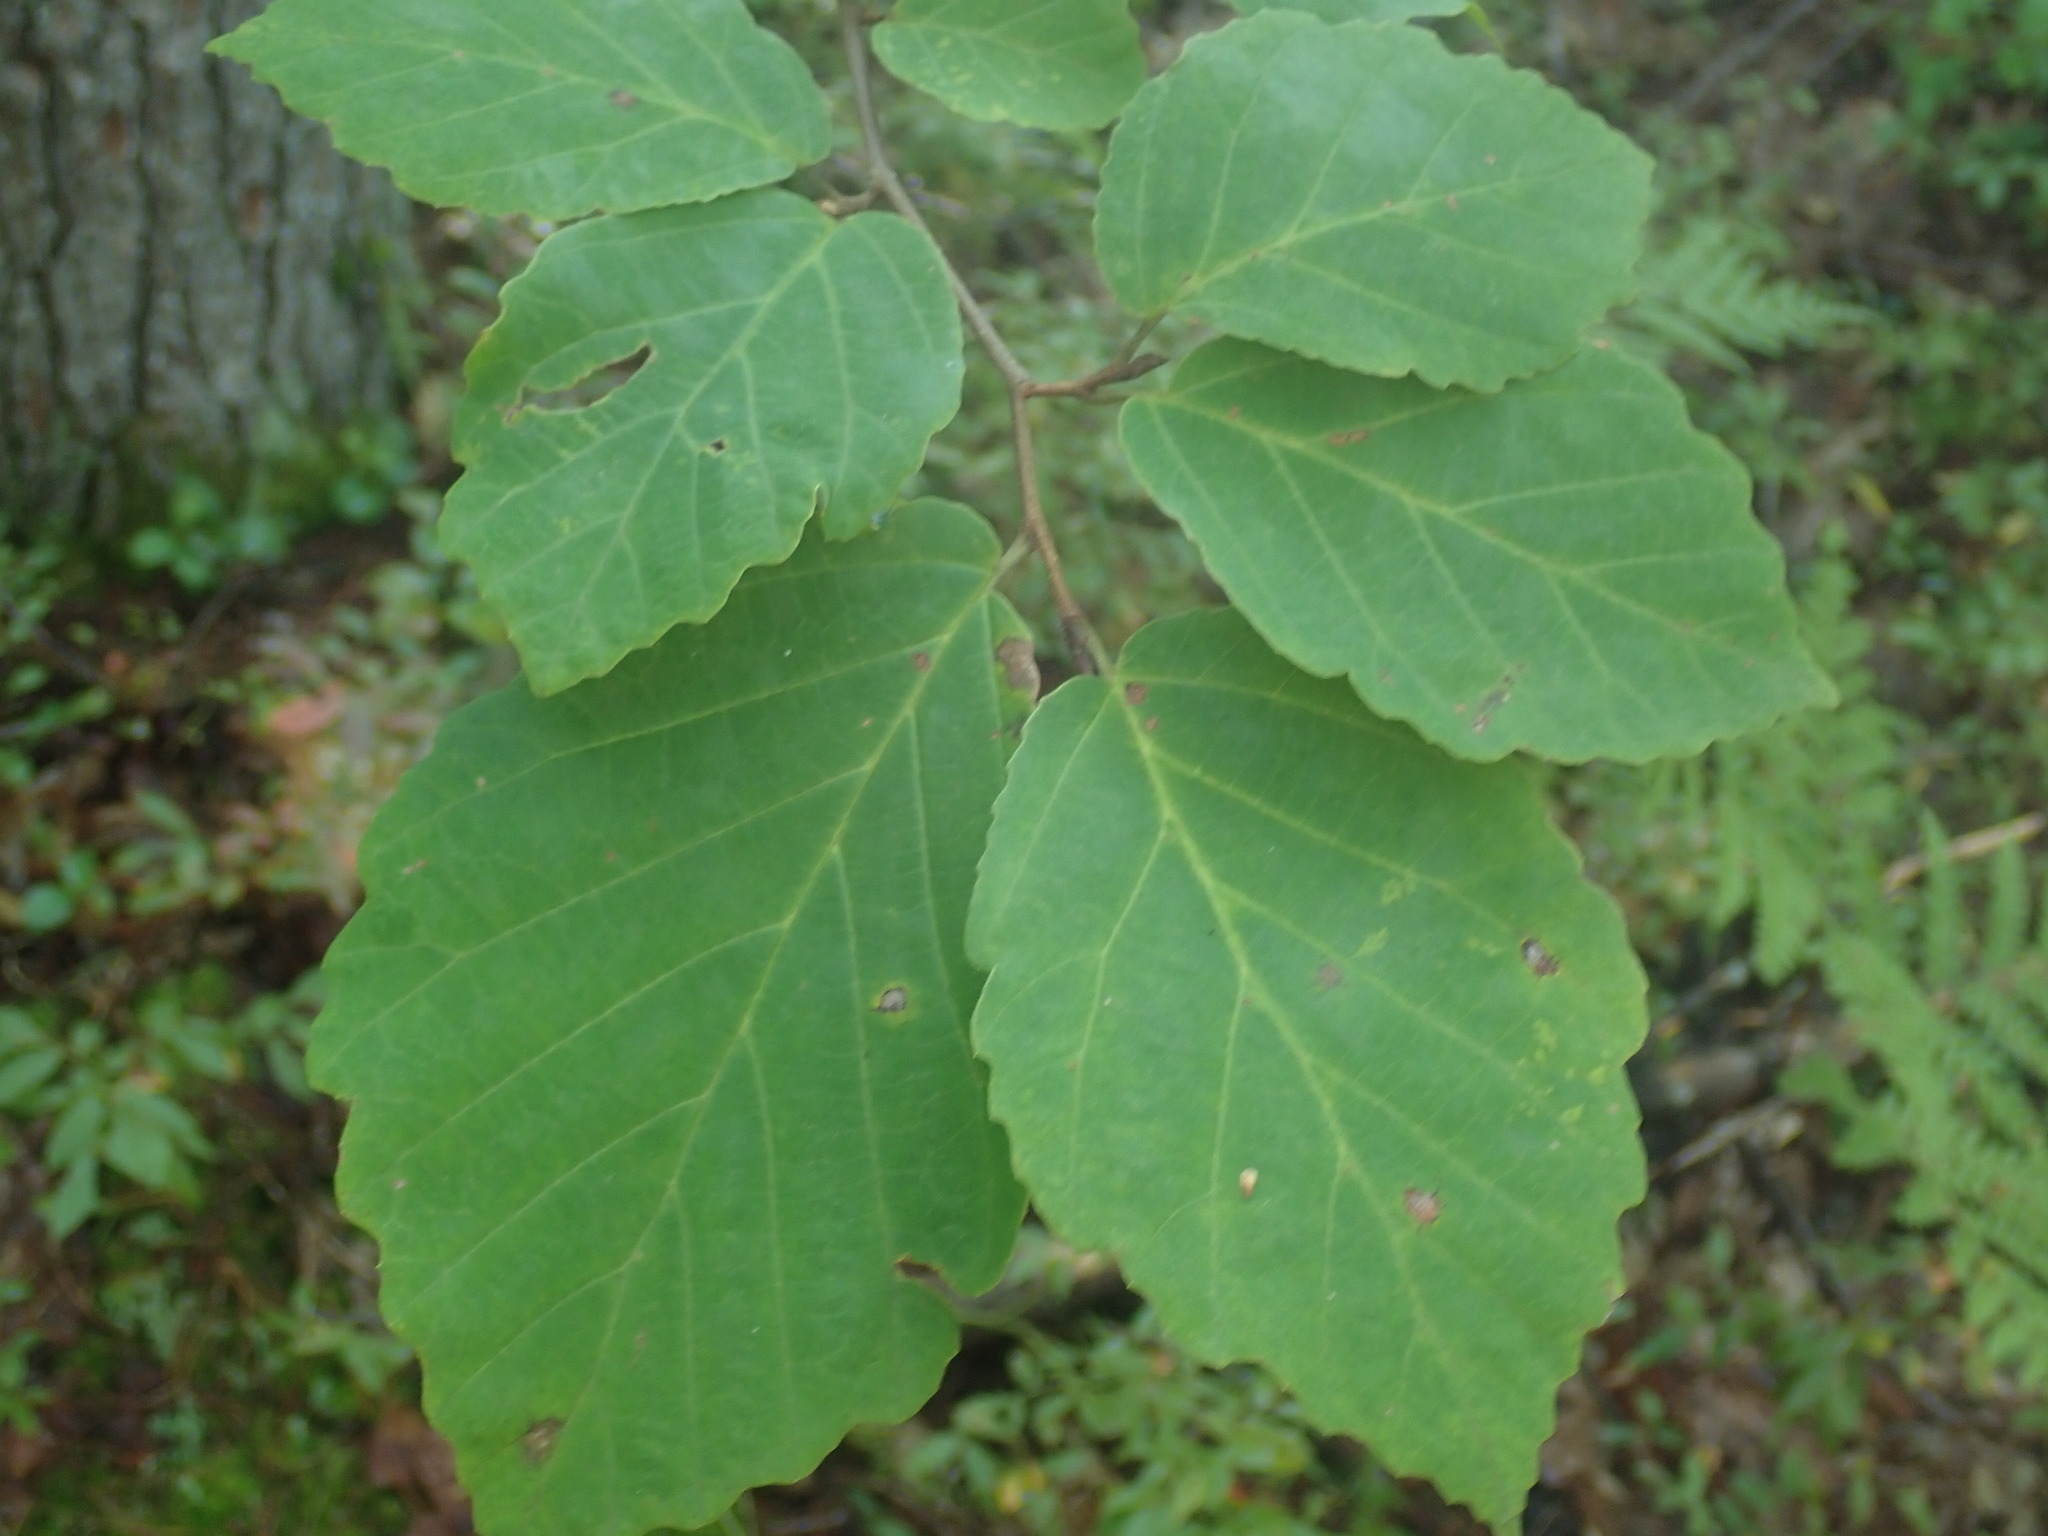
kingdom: Plantae
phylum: Tracheophyta
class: Magnoliopsida
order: Saxifragales
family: Hamamelidaceae
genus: Hamamelis
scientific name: Hamamelis virginiana
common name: Witch-hazel
